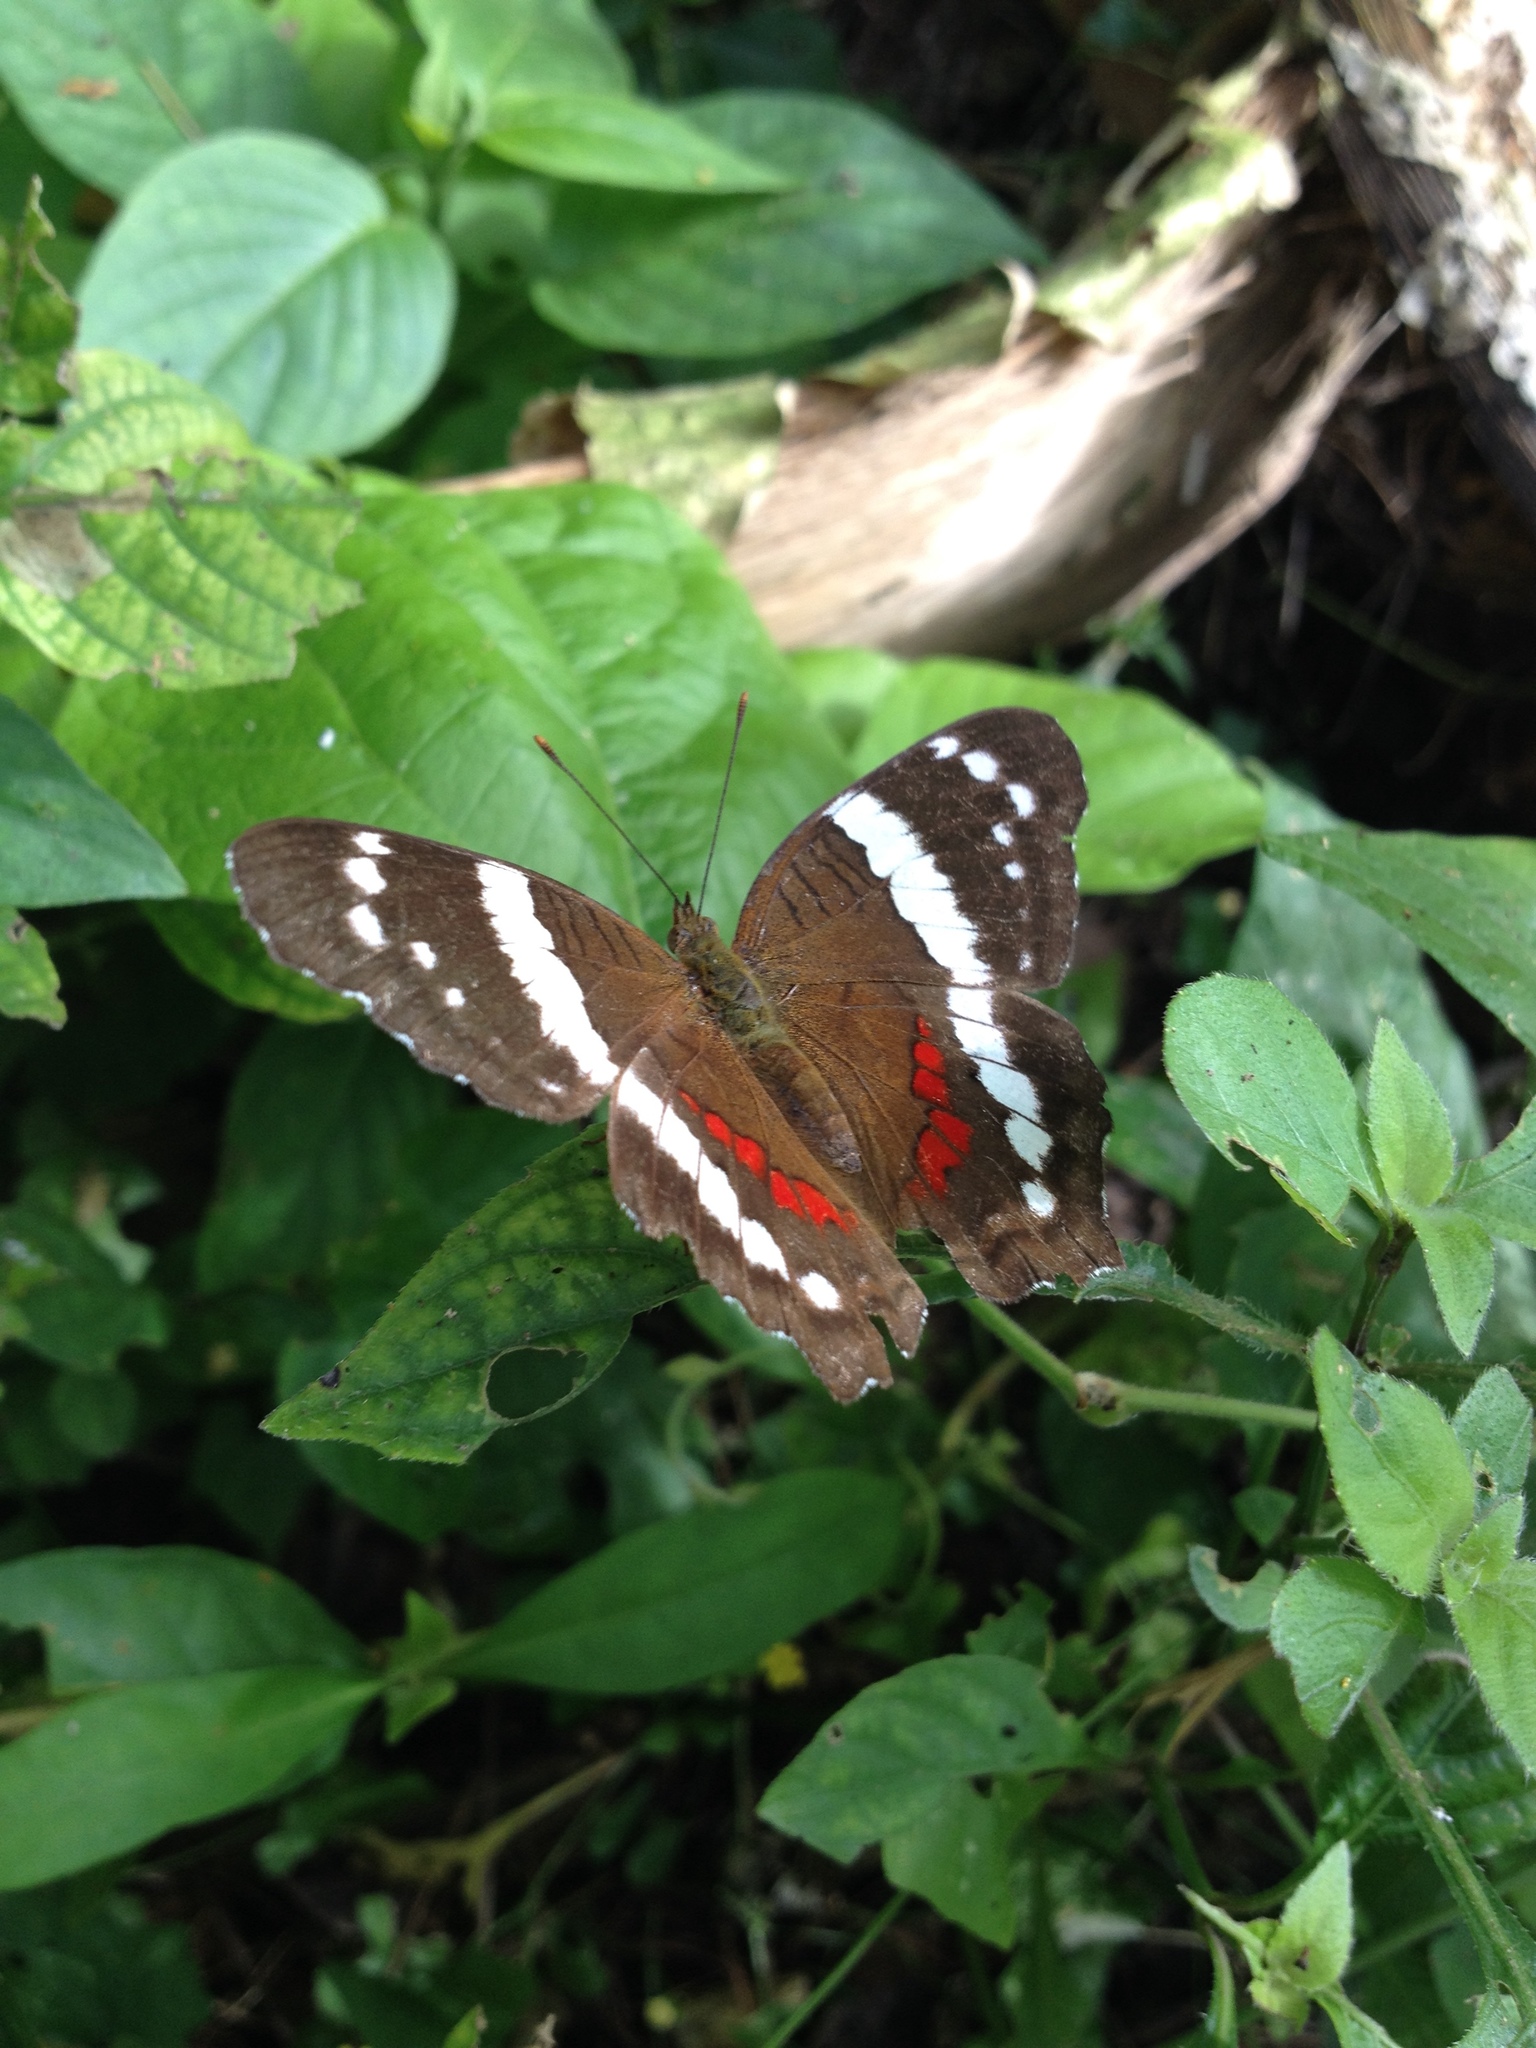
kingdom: Animalia
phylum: Arthropoda
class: Insecta
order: Lepidoptera
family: Nymphalidae
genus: Anartia
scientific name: Anartia fatima
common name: Banded peacock
